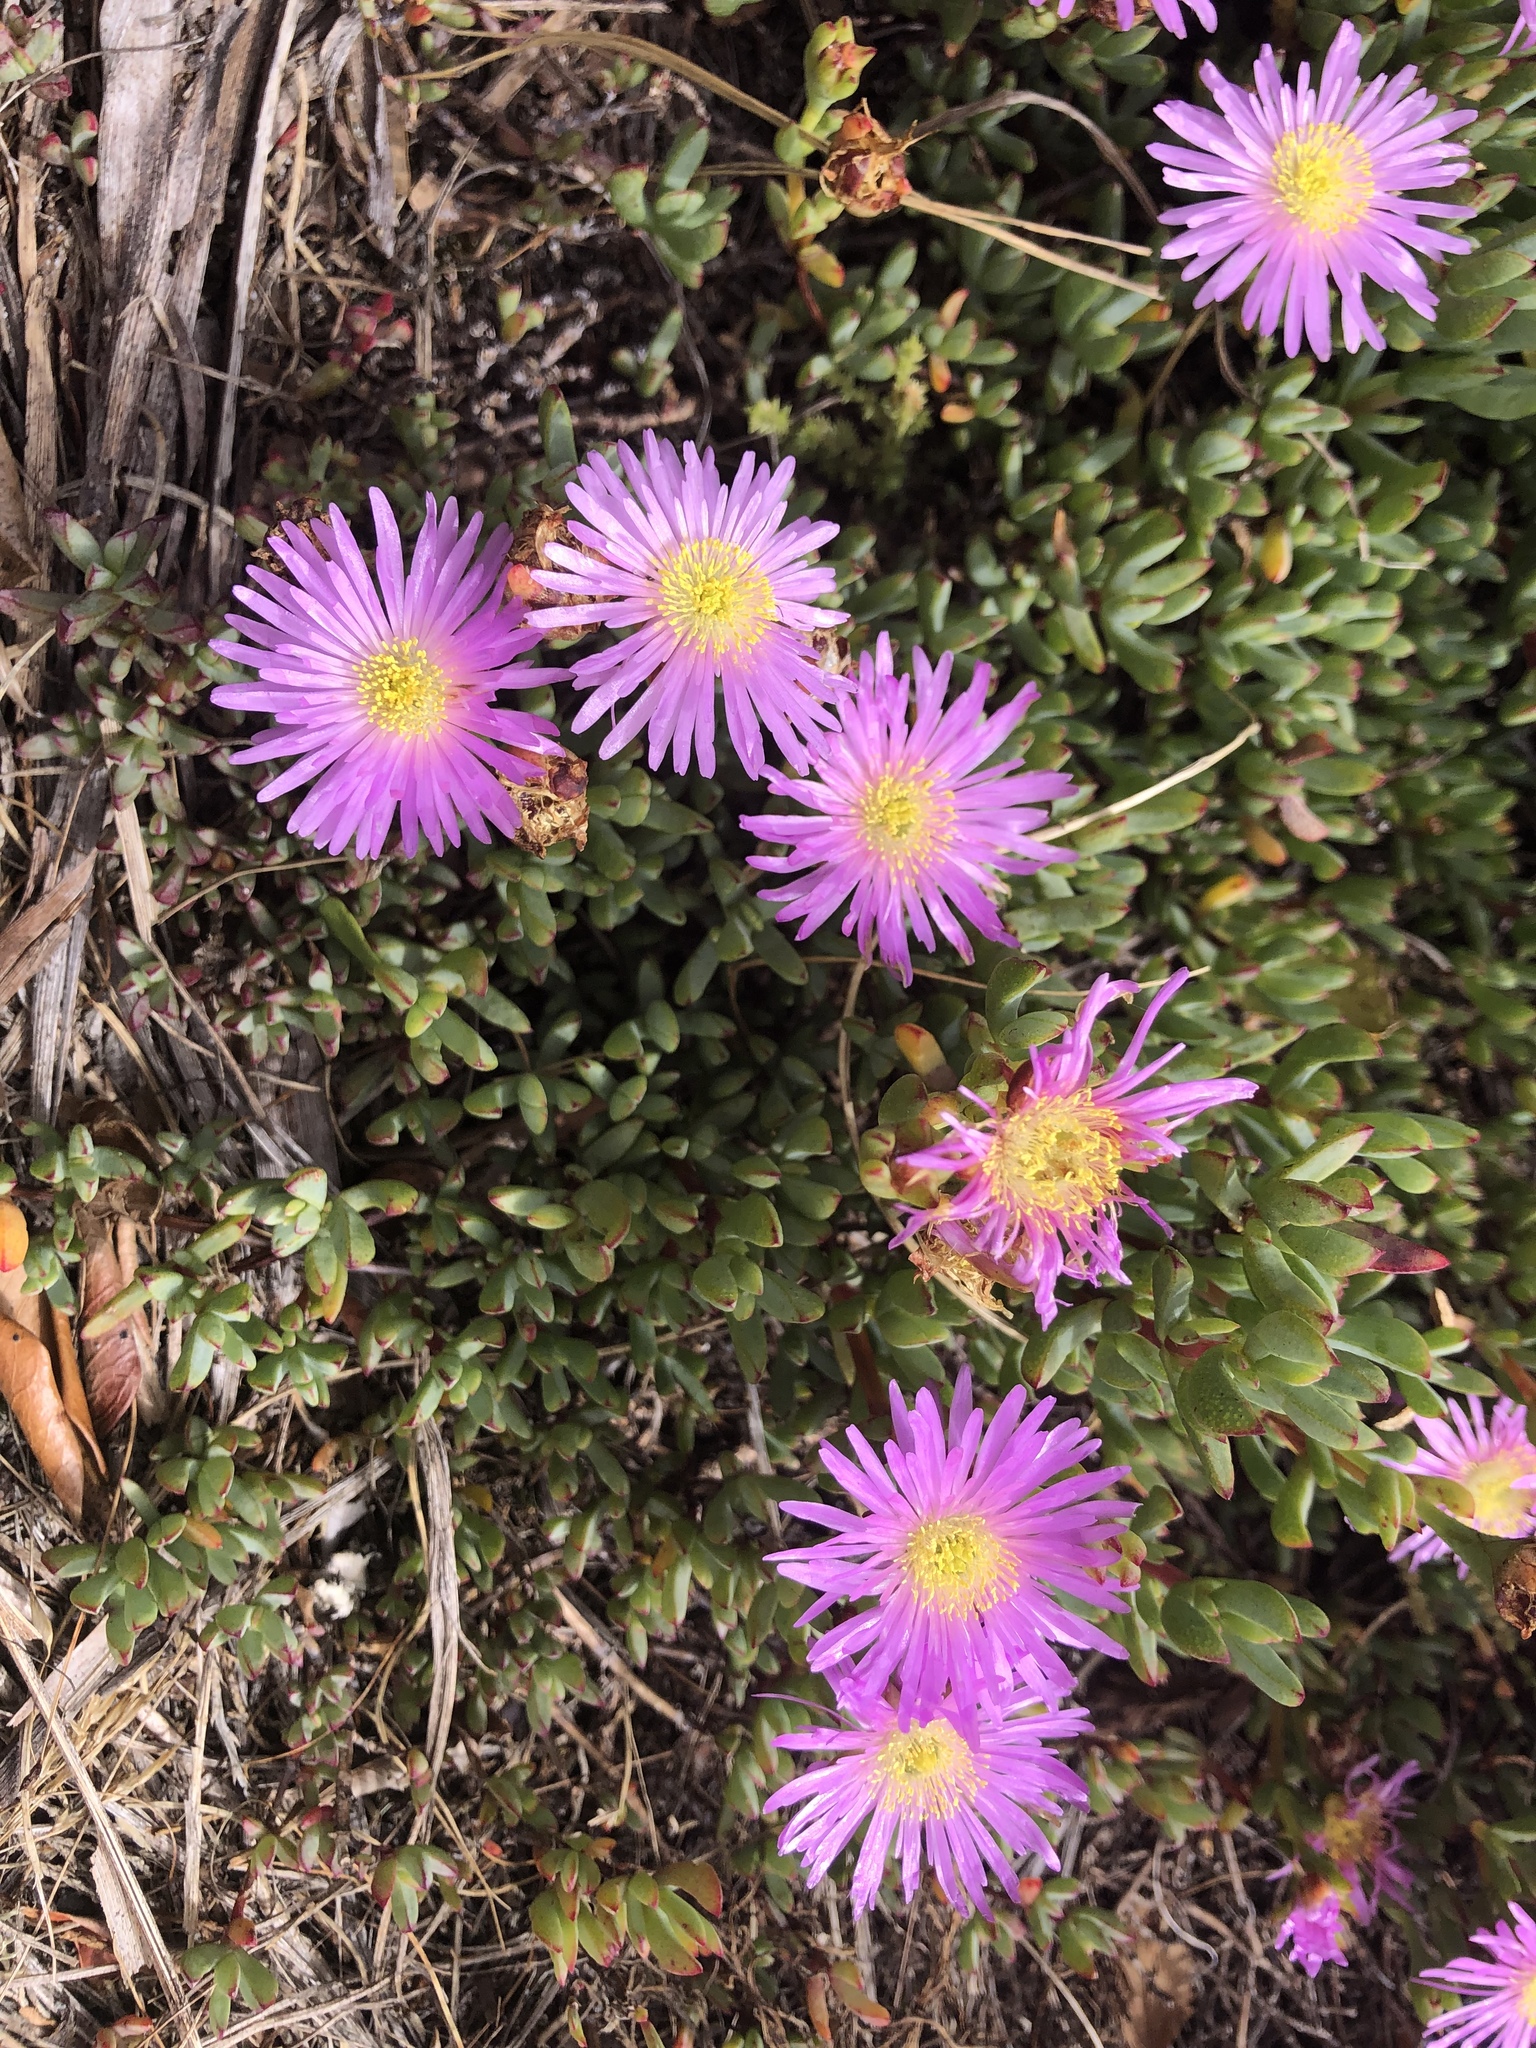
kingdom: Plantae
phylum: Tracheophyta
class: Magnoliopsida
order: Caryophyllales
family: Aizoaceae
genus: Oscularia
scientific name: Oscularia falciformis
